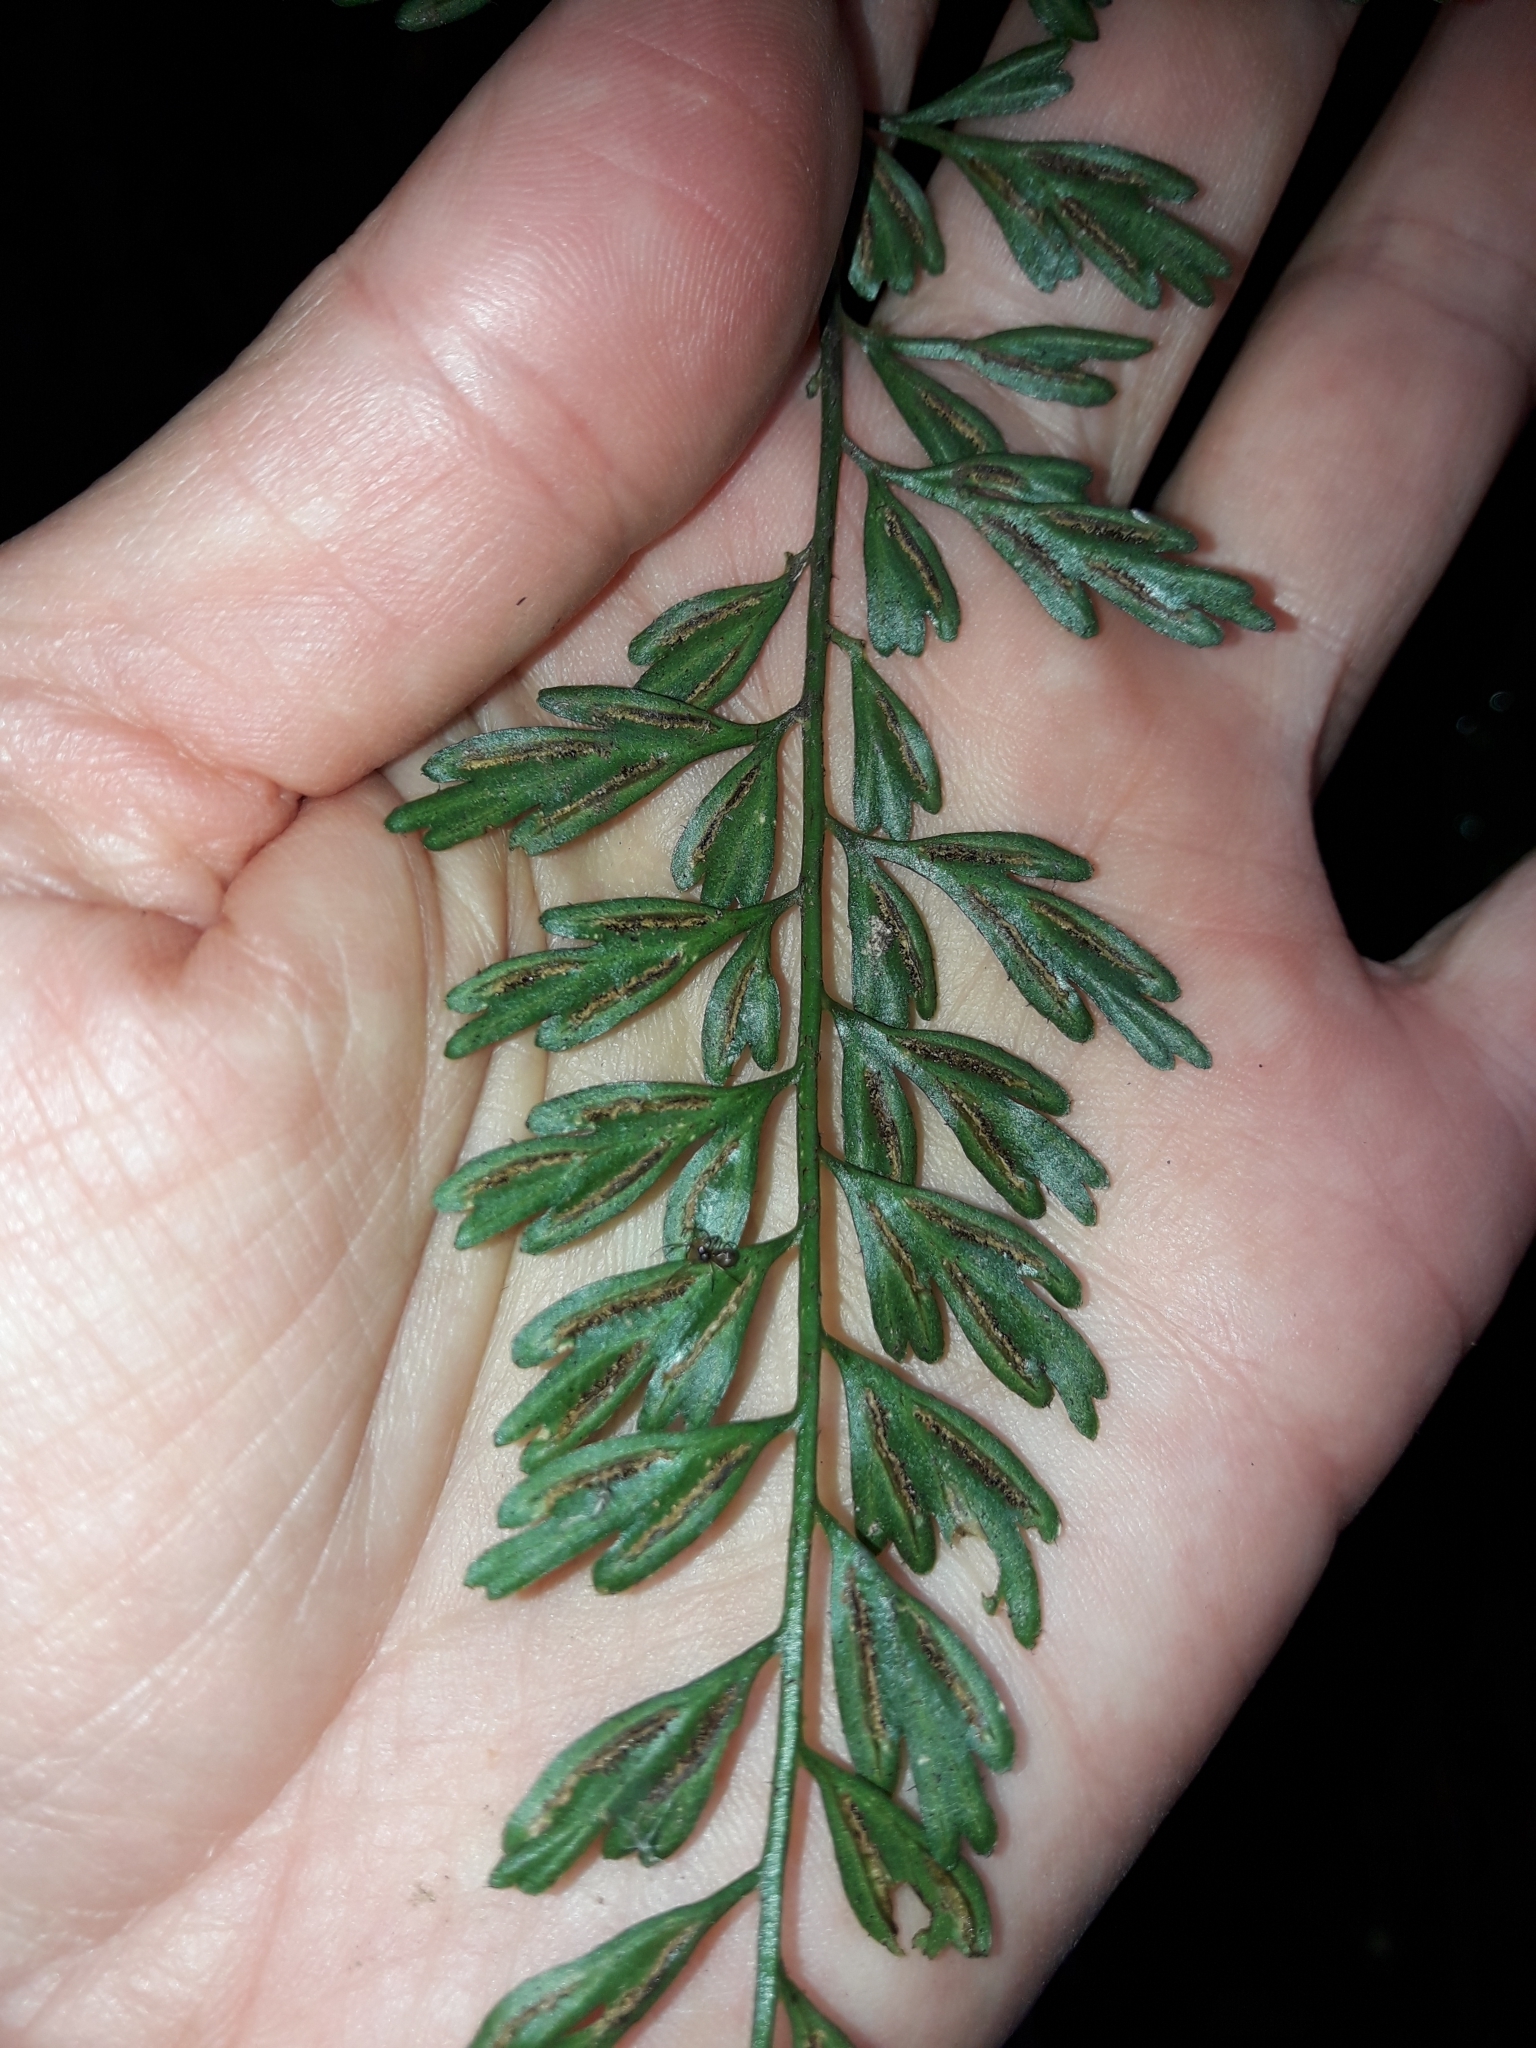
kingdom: Plantae
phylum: Tracheophyta
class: Polypodiopsida
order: Polypodiales
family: Aspleniaceae
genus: Asplenium
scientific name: Asplenium aethiopicum
